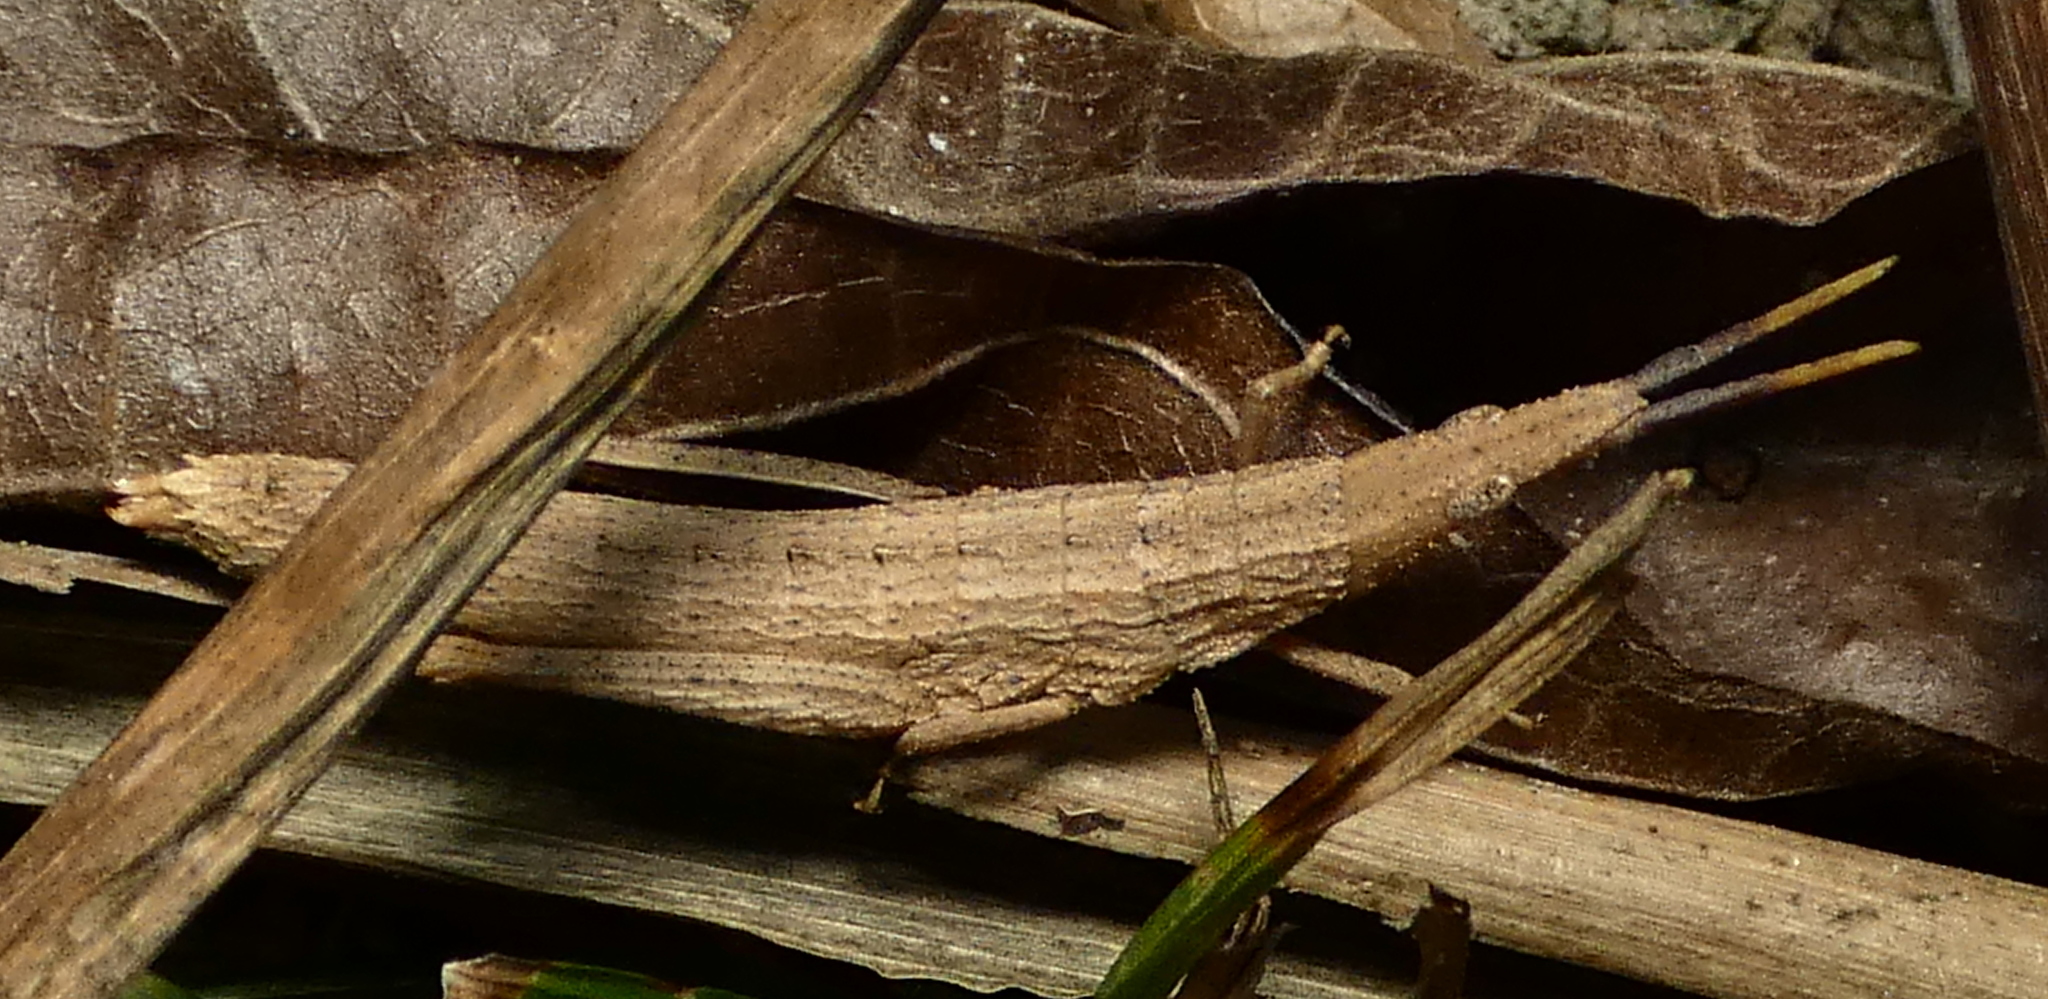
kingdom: Animalia
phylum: Arthropoda
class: Insecta
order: Orthoptera
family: Pyrgomorphidae
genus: Algete
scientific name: Algete brunneri
